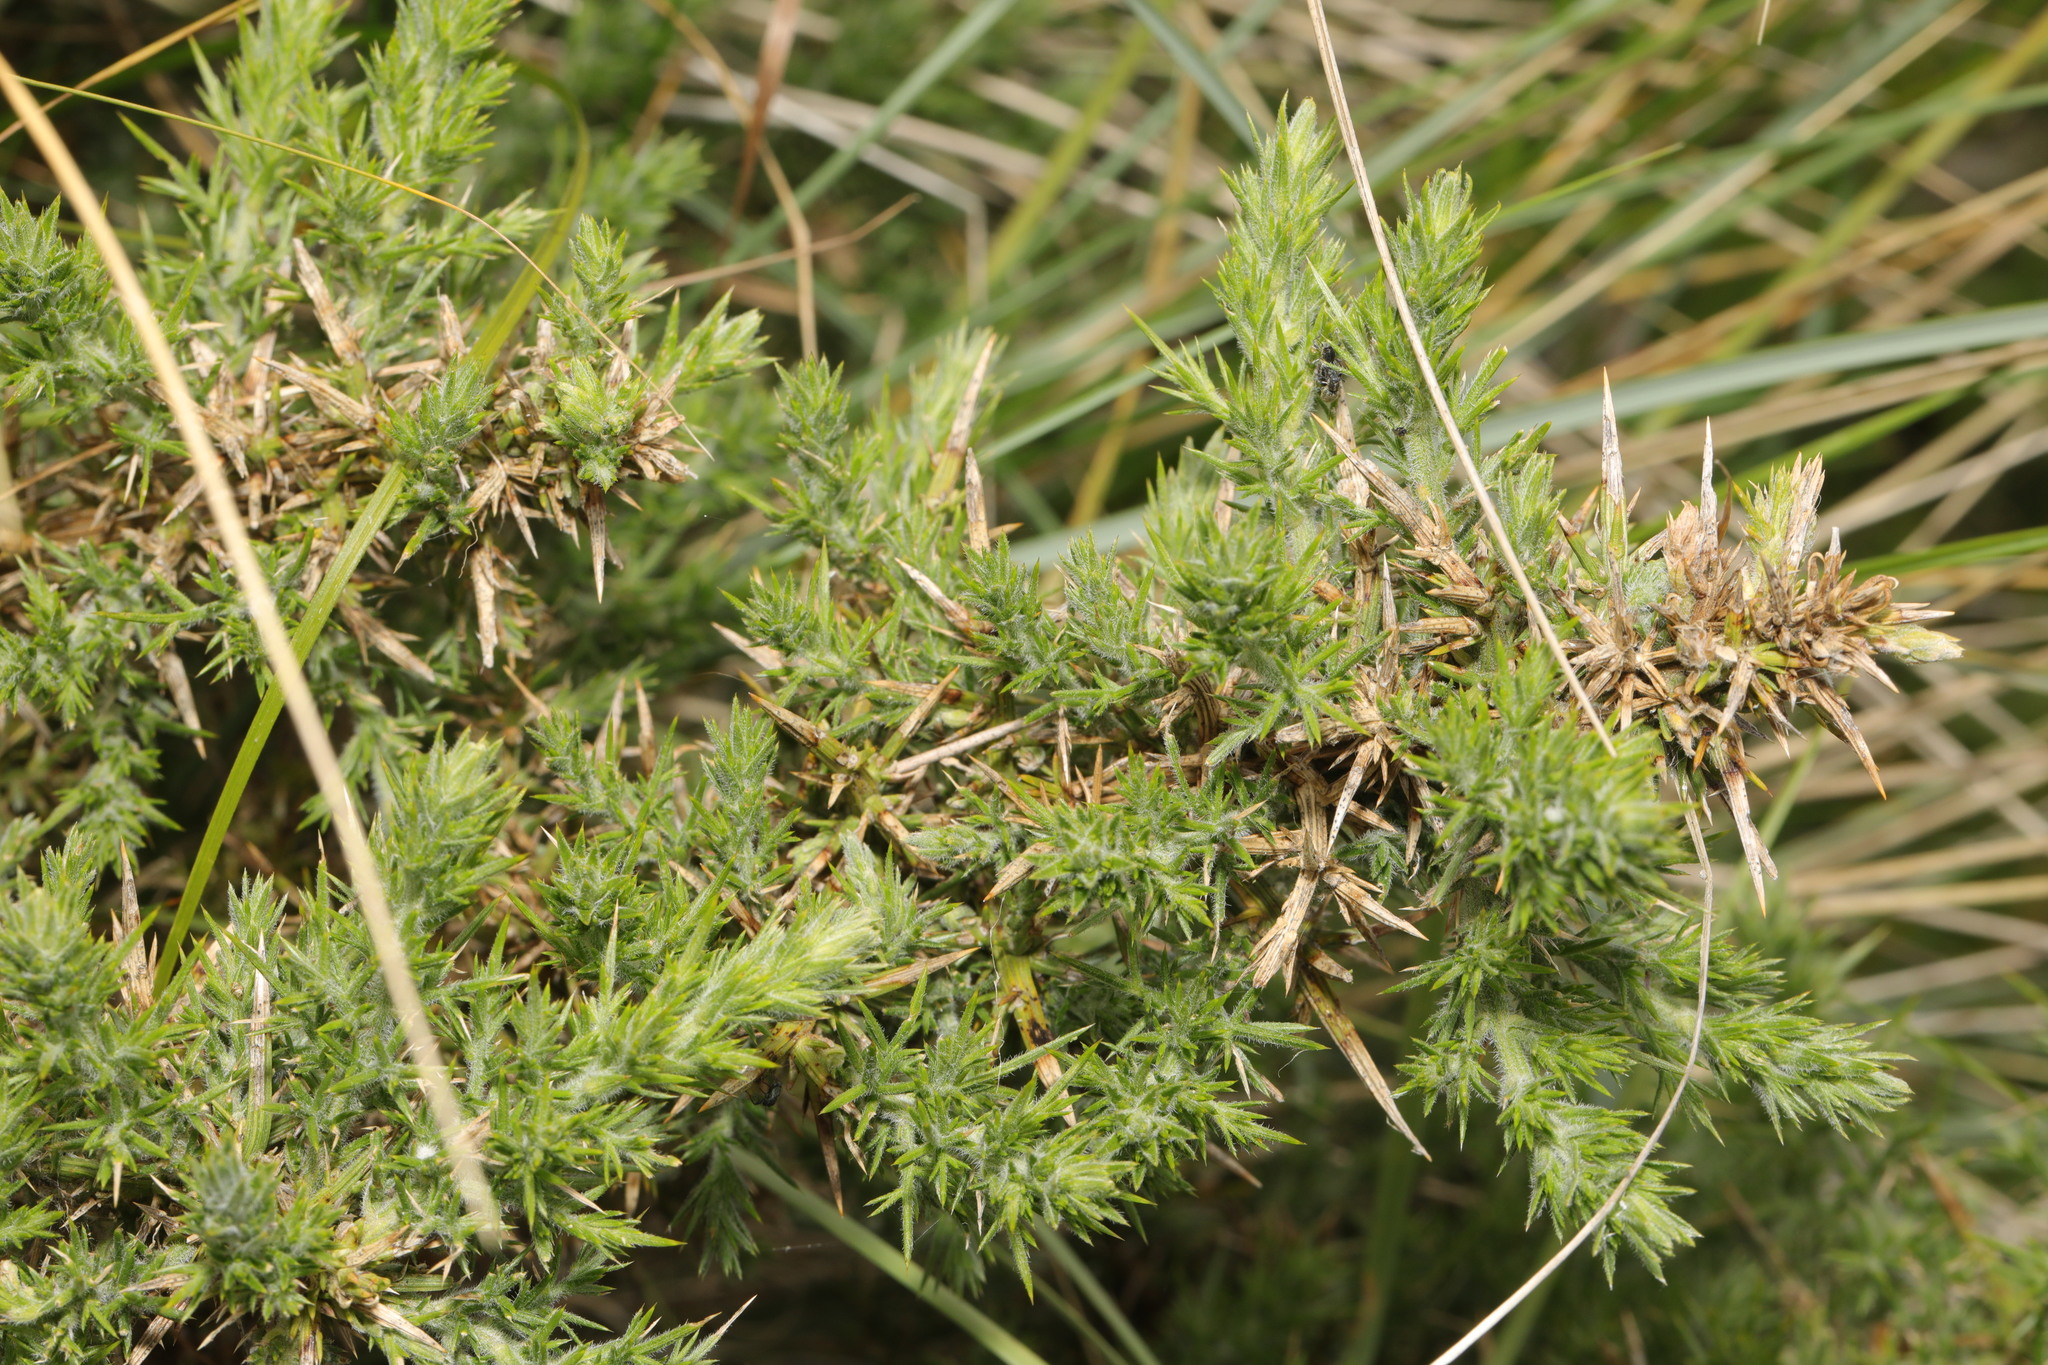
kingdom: Plantae
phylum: Tracheophyta
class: Magnoliopsida
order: Fabales
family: Fabaceae
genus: Ulex
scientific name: Ulex europaeus
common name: Common gorse
